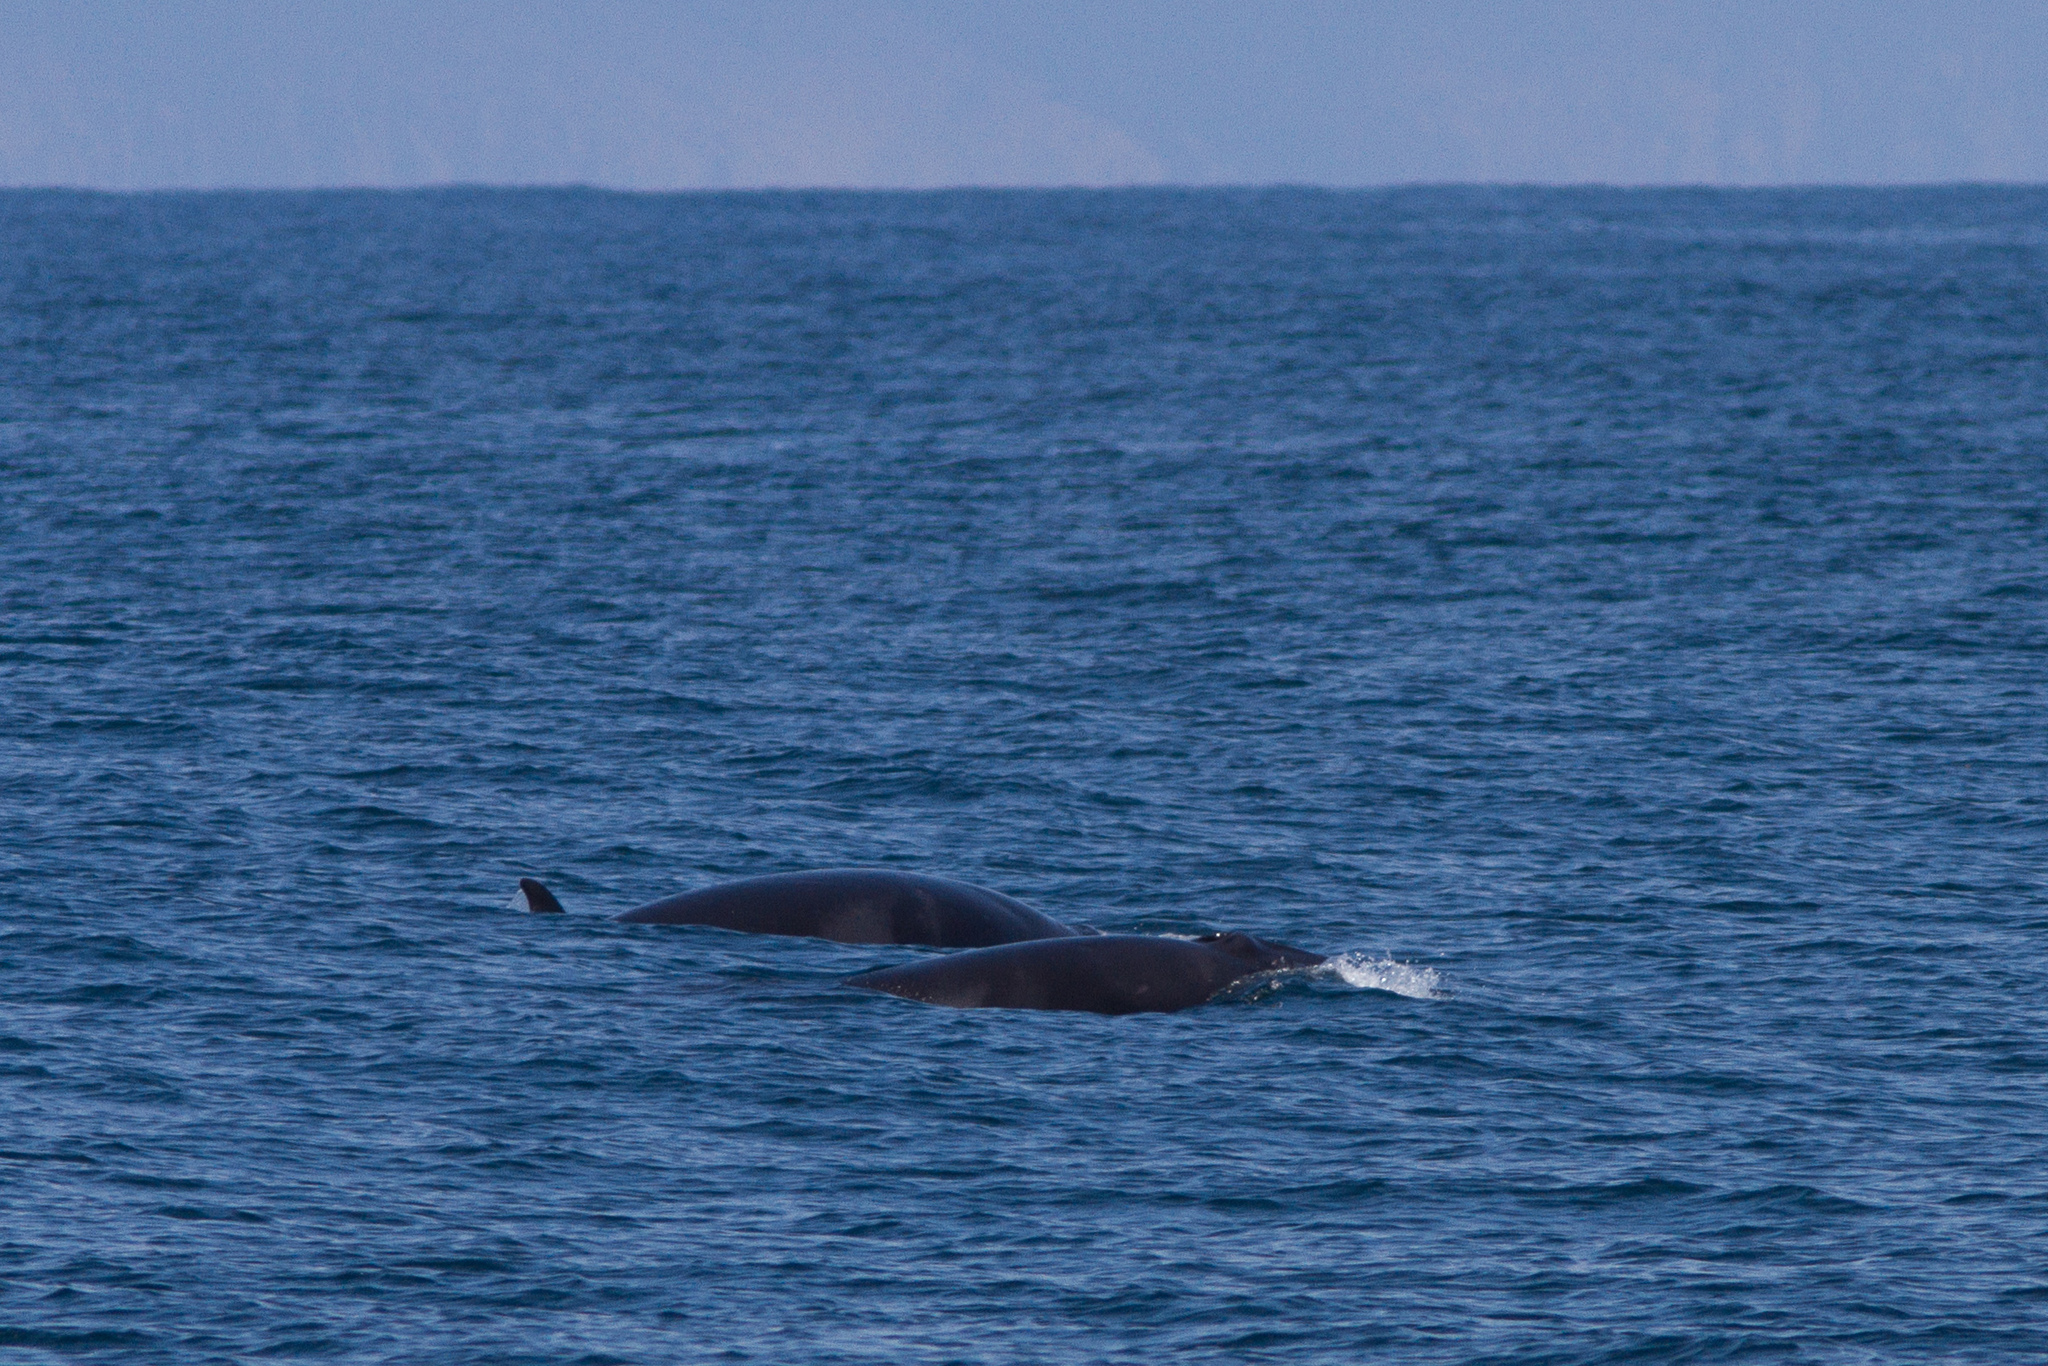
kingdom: Animalia
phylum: Chordata
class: Mammalia
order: Cetacea
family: Balaenopteridae
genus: Balaenoptera
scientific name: Balaenoptera acutorostrata
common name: Common minke whale
